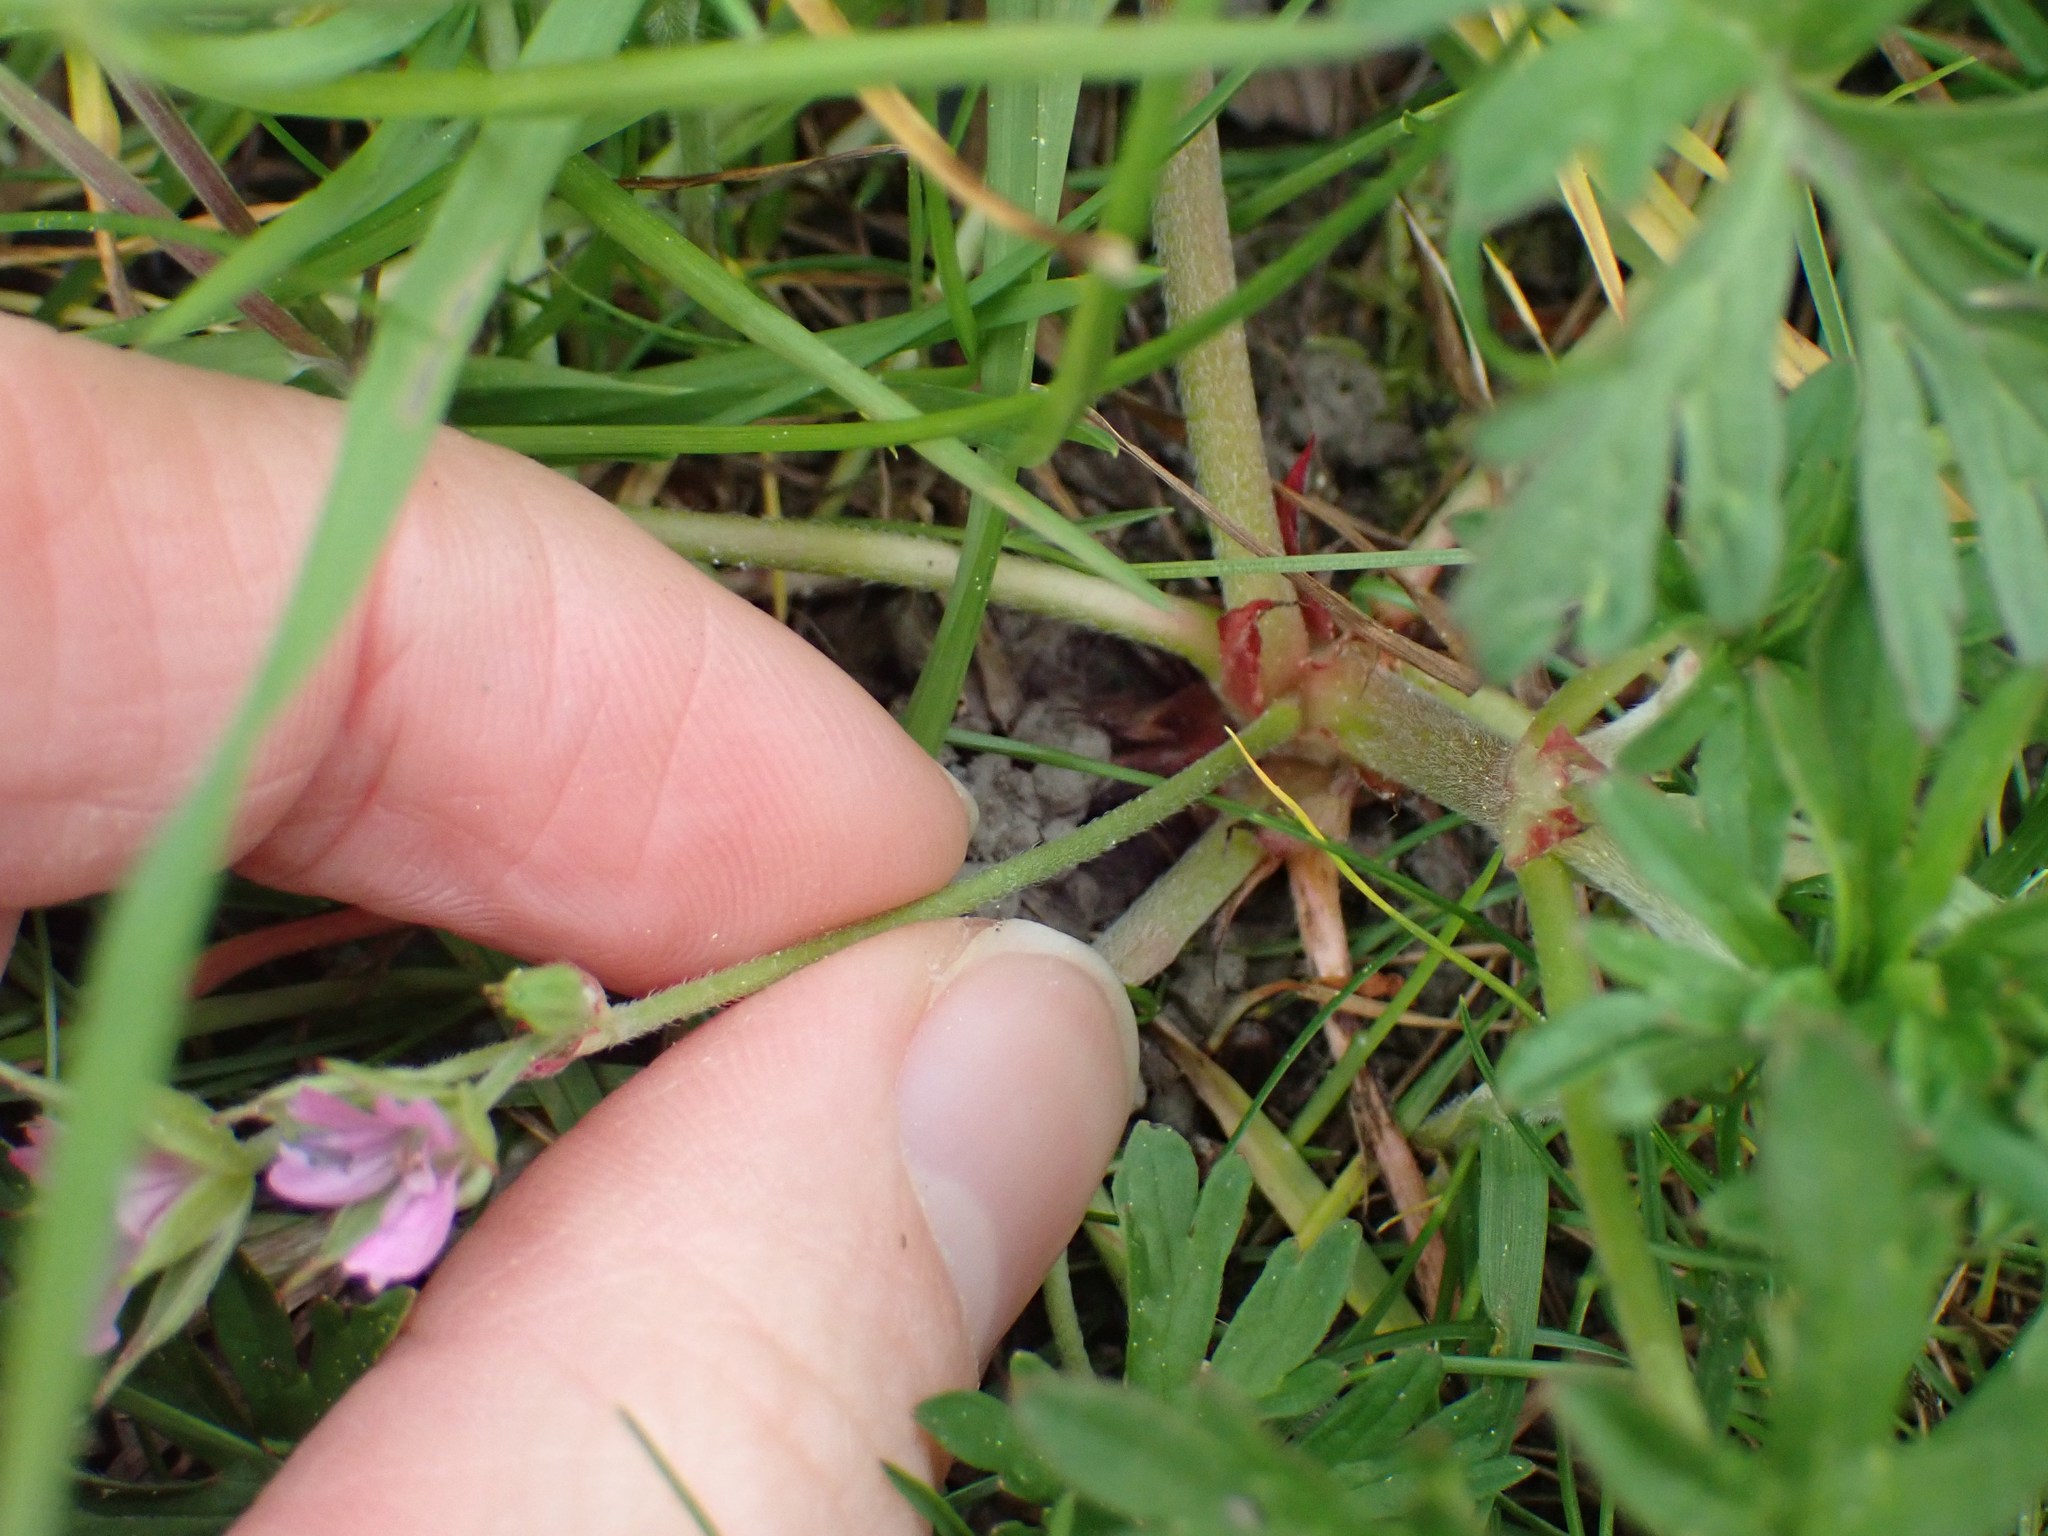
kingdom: Plantae
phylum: Tracheophyta
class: Magnoliopsida
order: Geraniales
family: Geraniaceae
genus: Geranium
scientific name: Geranium dissectum
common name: Cut-leaved crane's-bill
